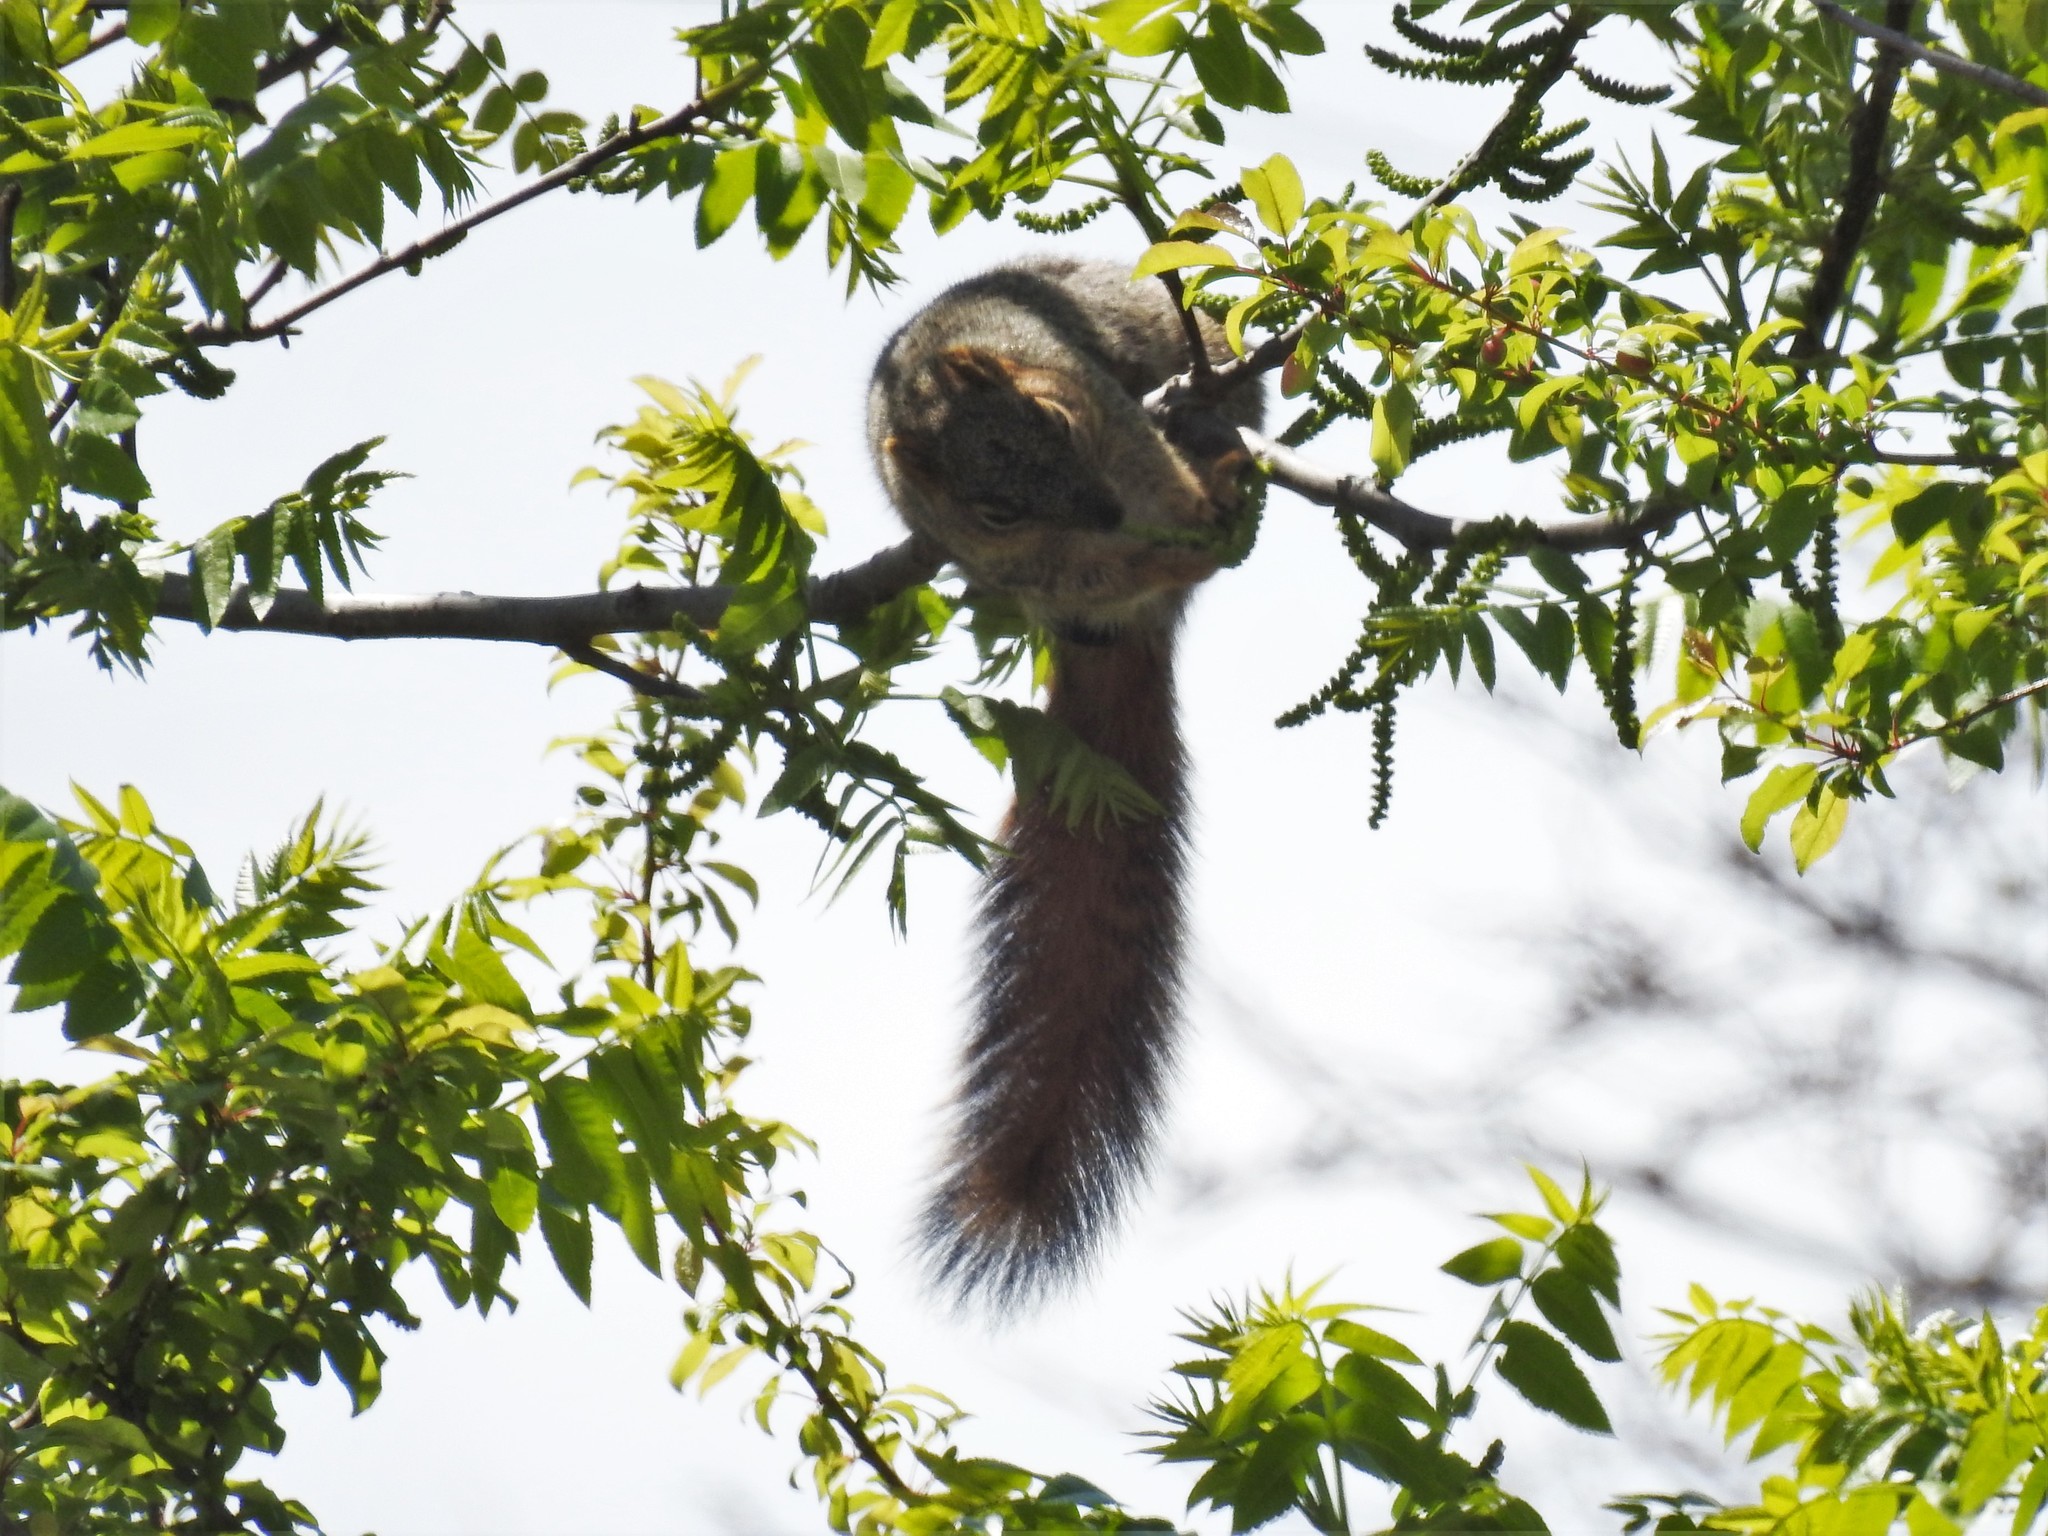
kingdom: Animalia
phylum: Chordata
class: Mammalia
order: Rodentia
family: Sciuridae
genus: Sciurus
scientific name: Sciurus niger
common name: Fox squirrel
